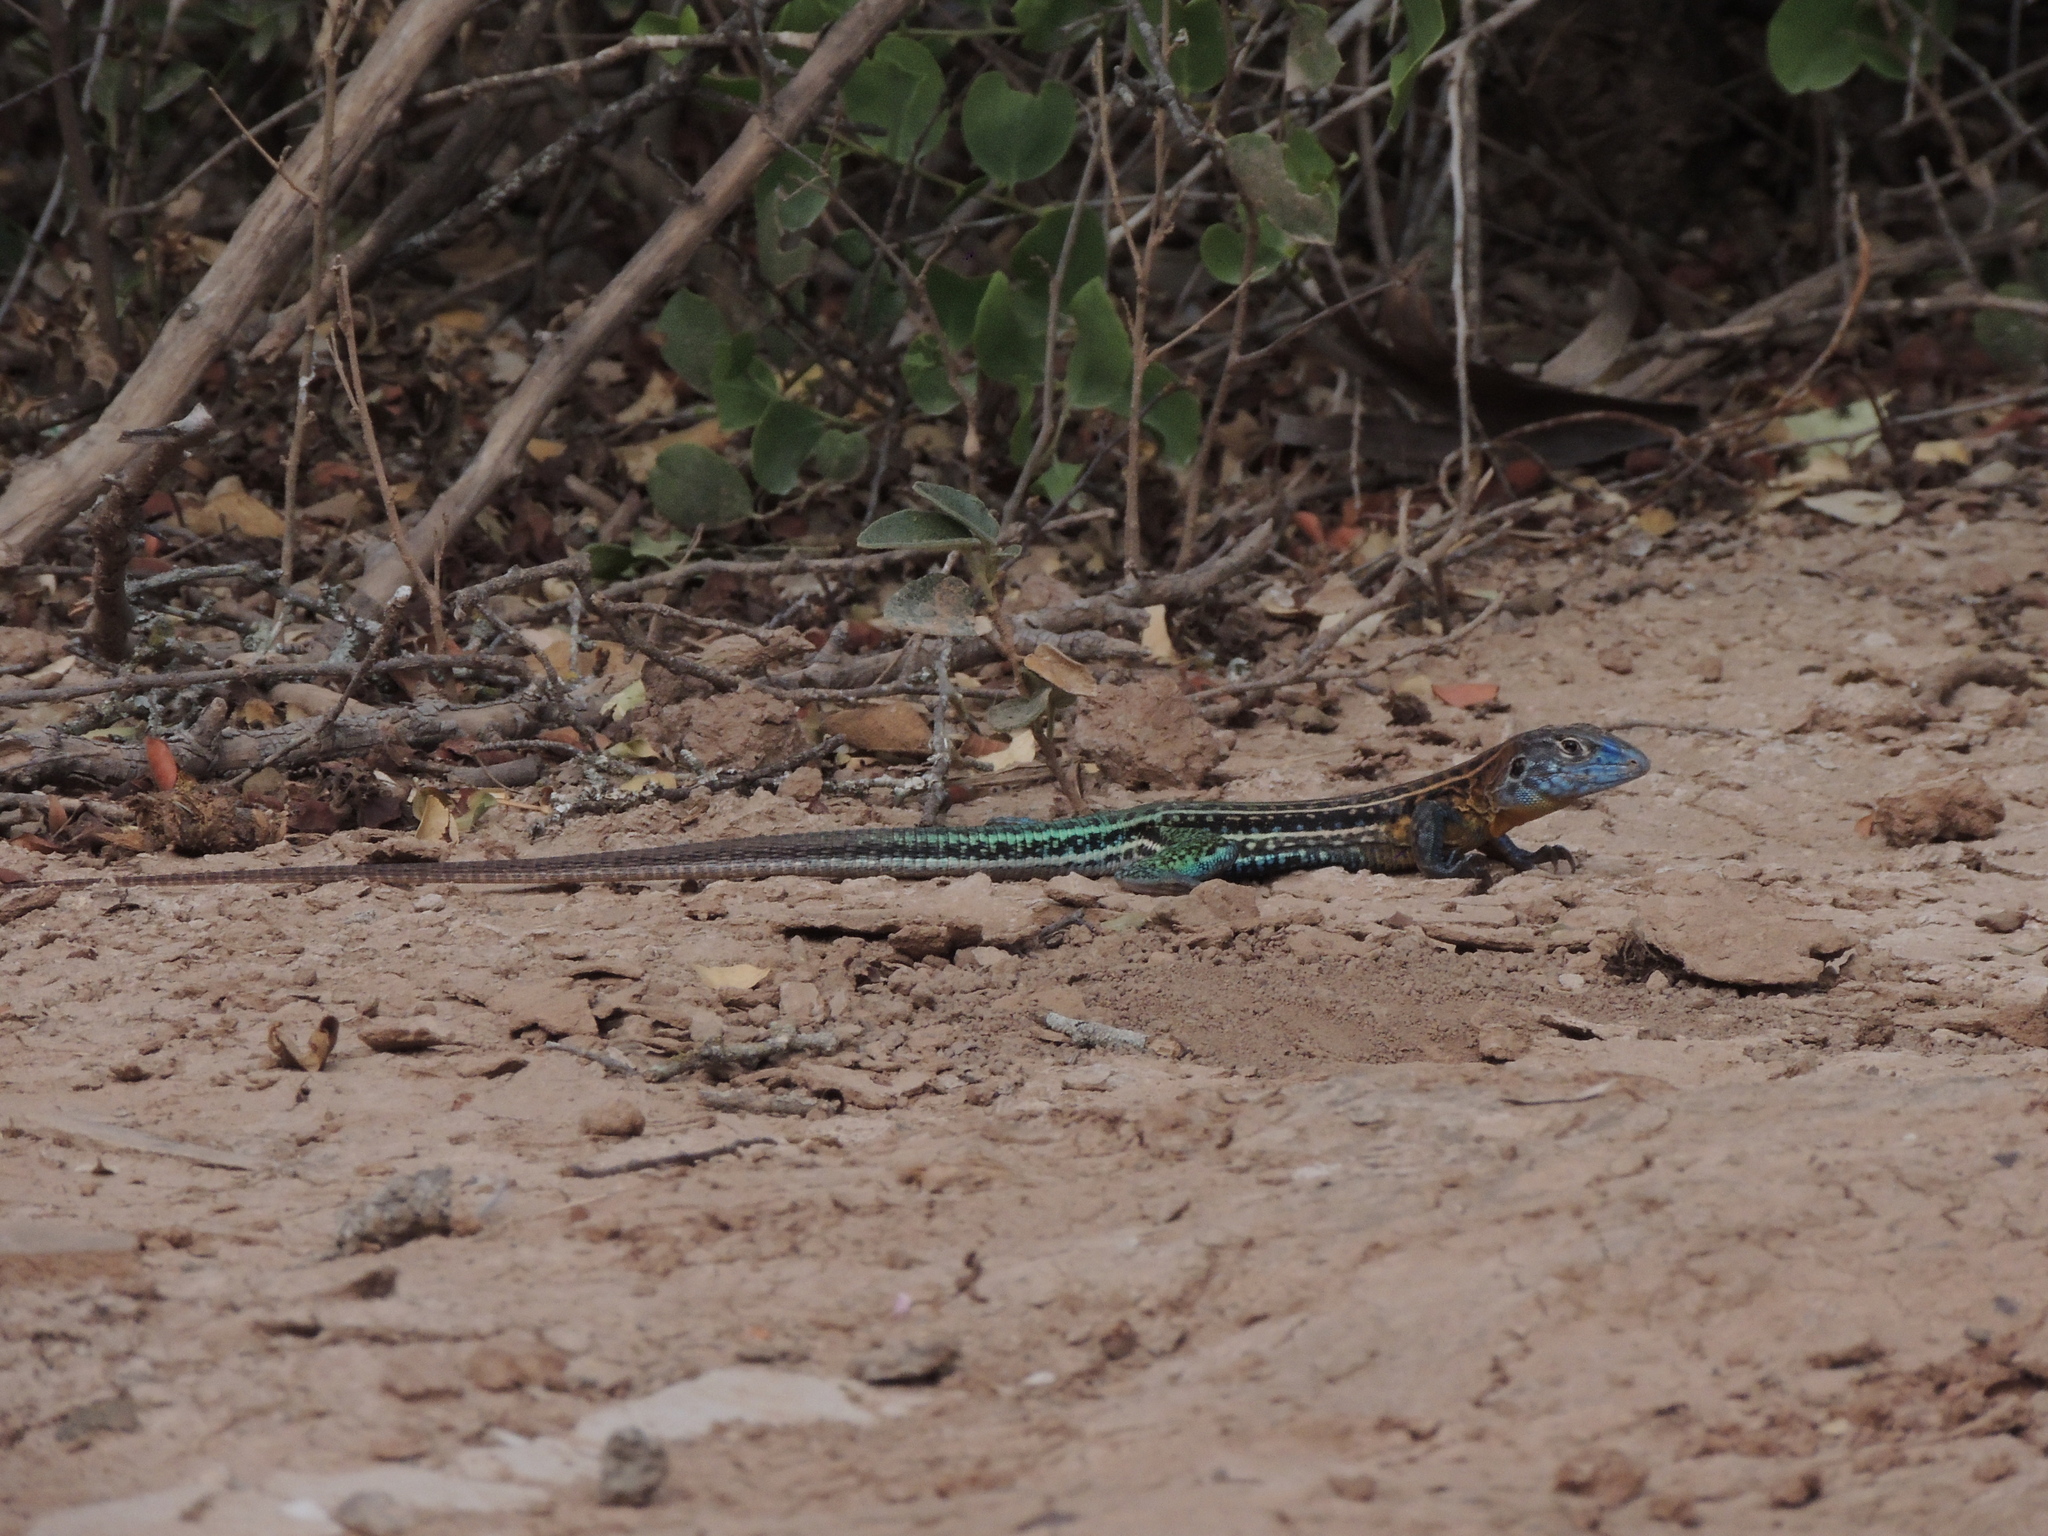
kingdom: Animalia
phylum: Chordata
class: Squamata
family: Teiidae
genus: Teius
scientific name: Teius teyou
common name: Four-toed tegu
